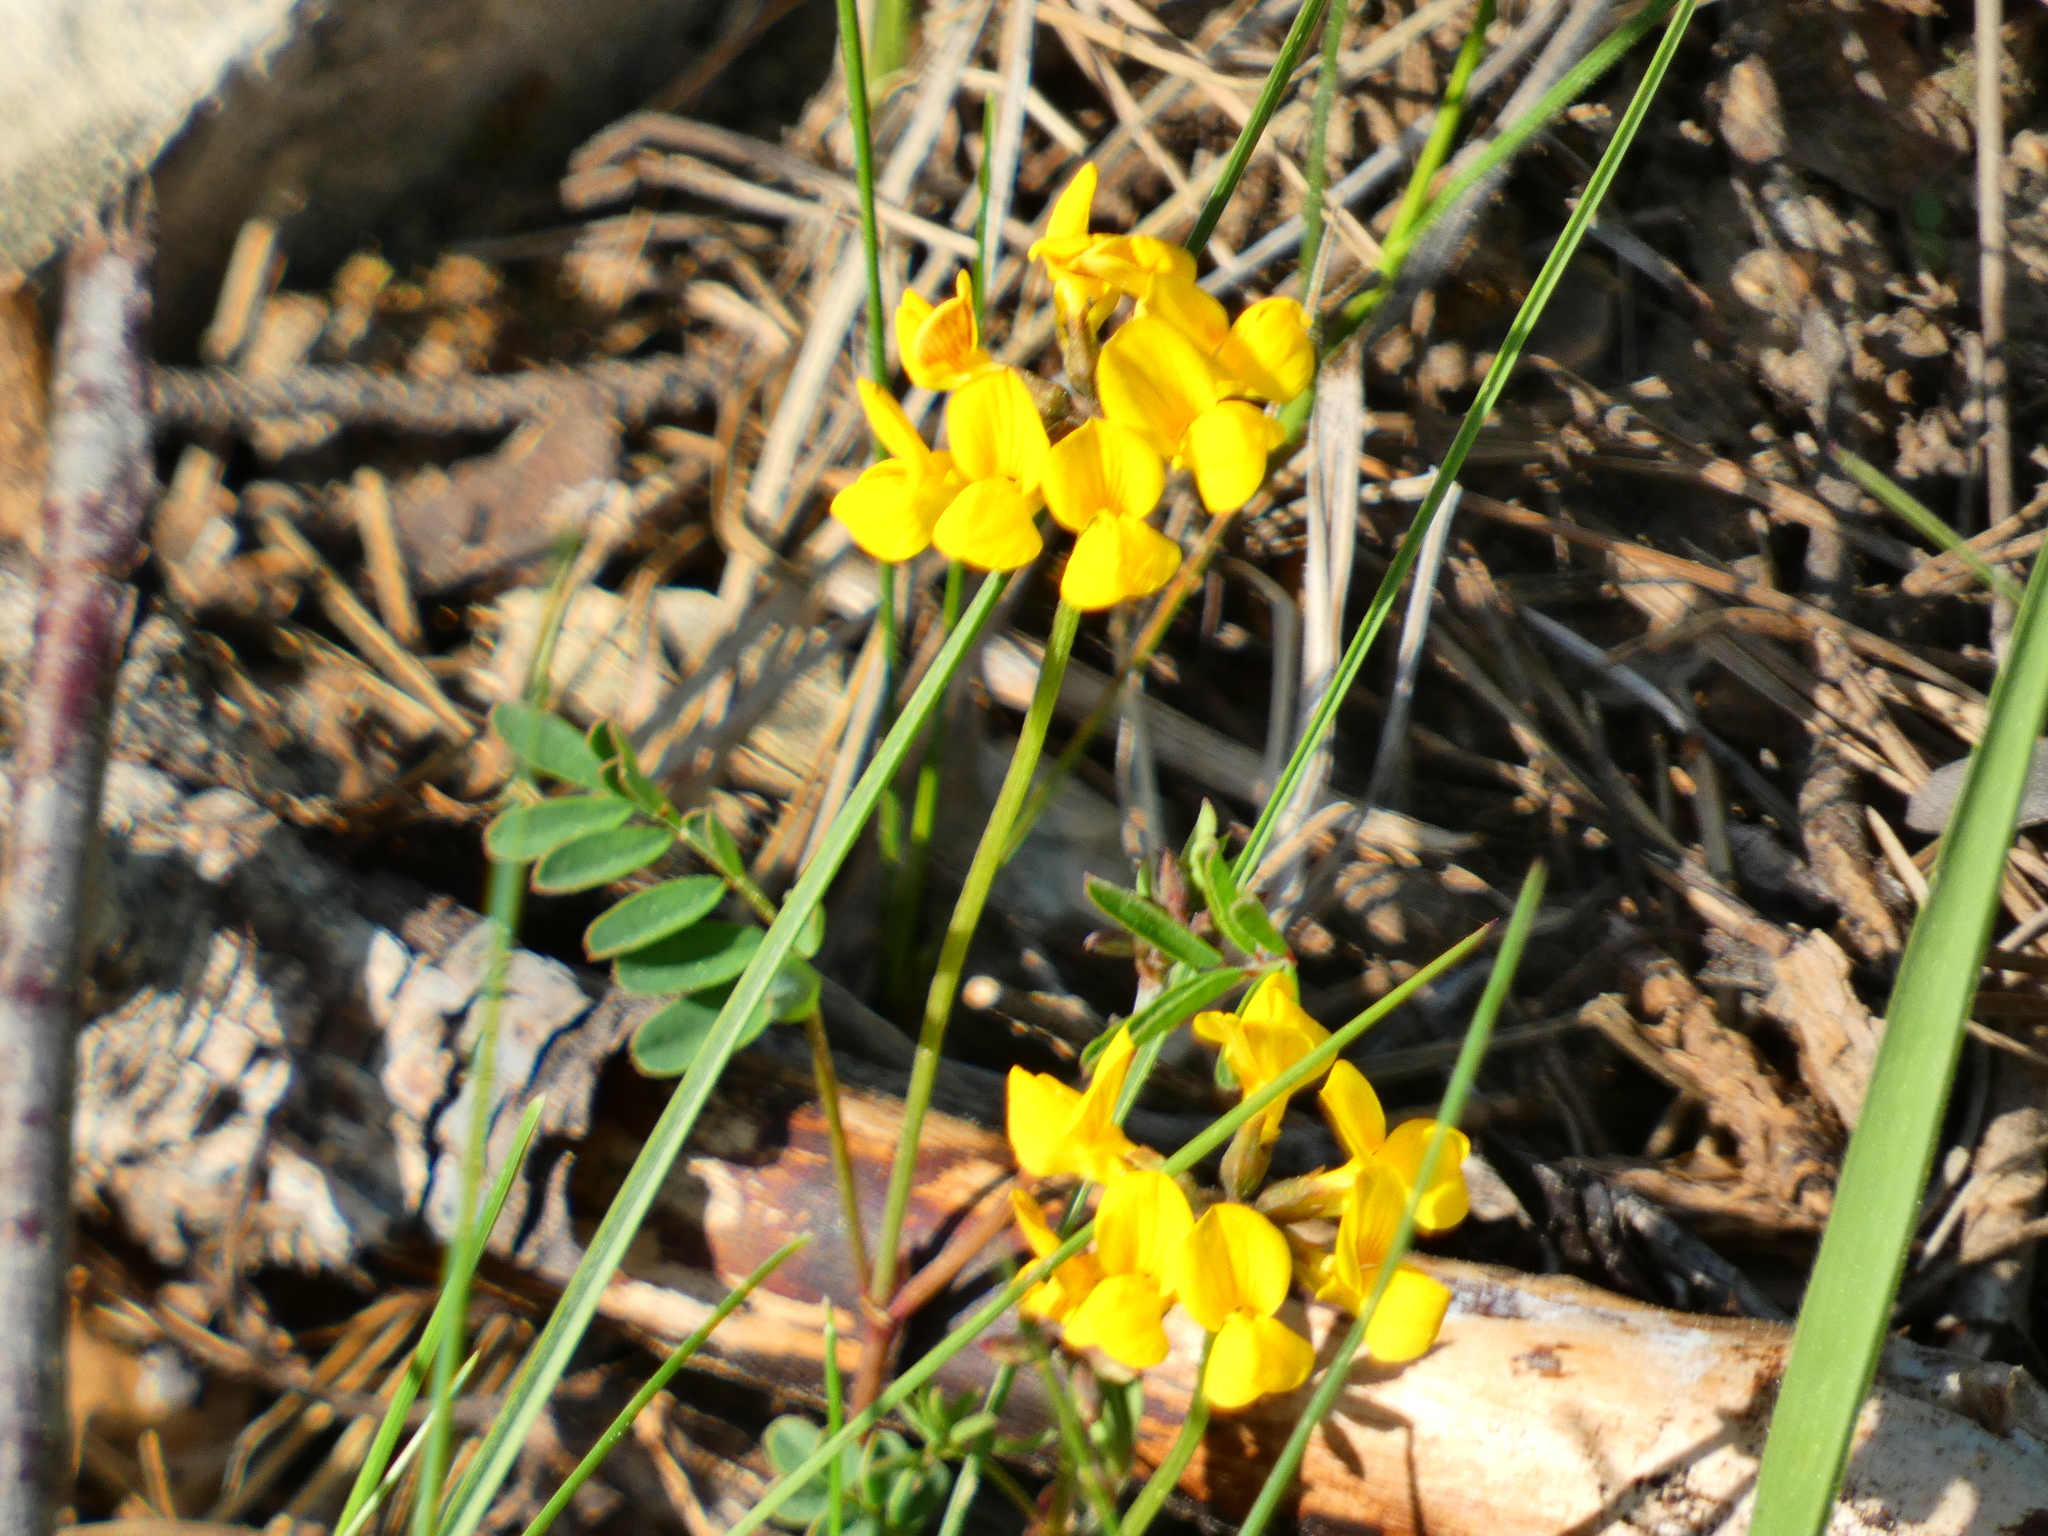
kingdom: Plantae
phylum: Tracheophyta
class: Magnoliopsida
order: Fabales
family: Fabaceae
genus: Hippocrepis
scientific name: Hippocrepis comosa
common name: Horseshoe vetch
